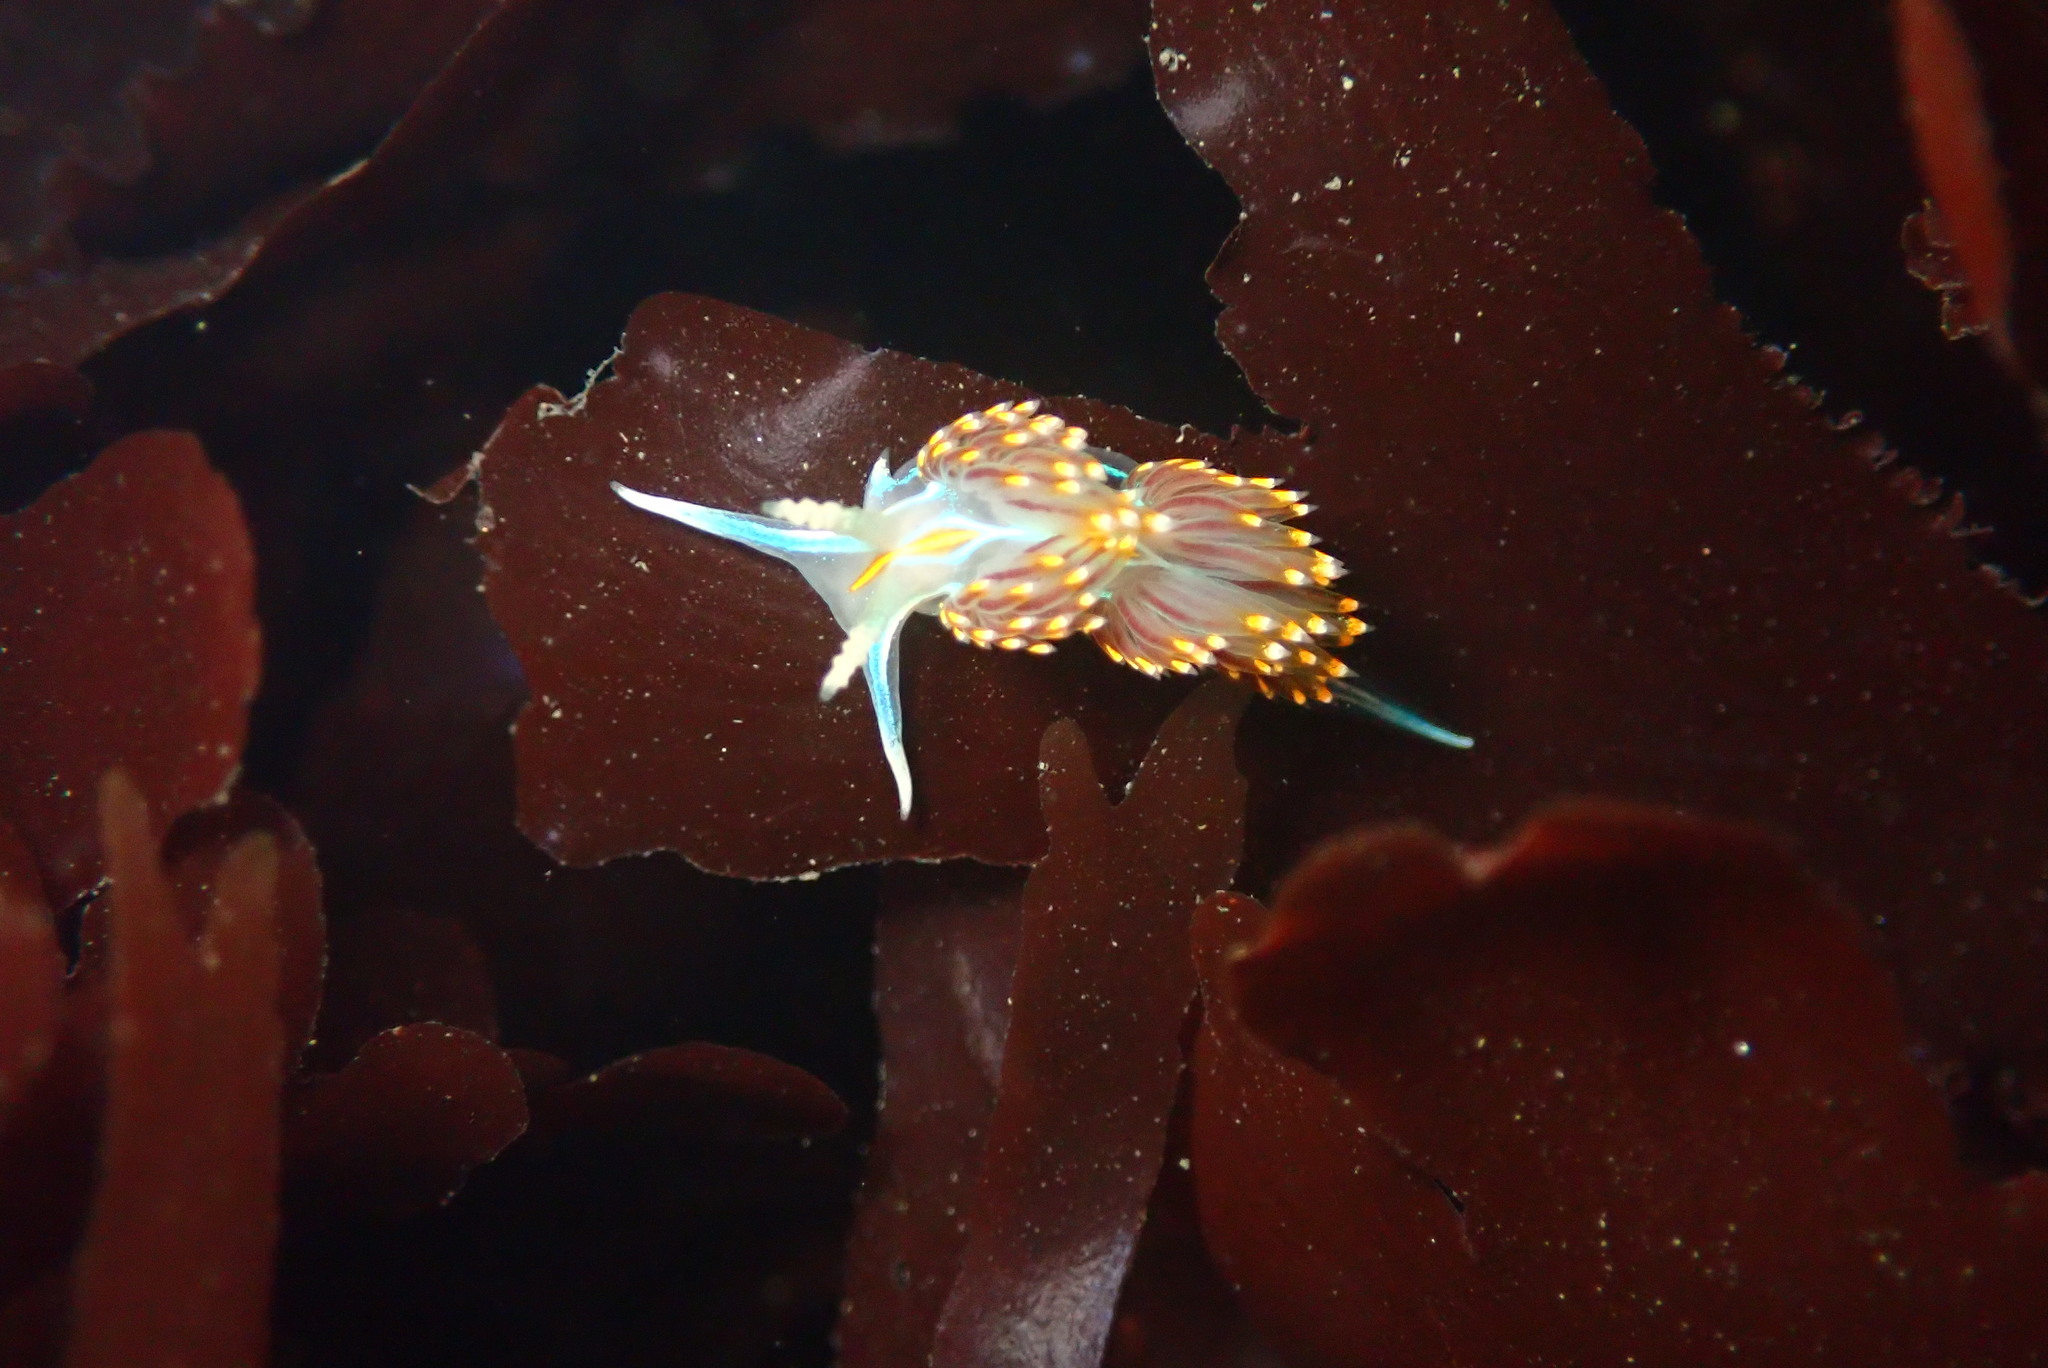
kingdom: Animalia
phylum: Mollusca
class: Gastropoda
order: Nudibranchia
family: Myrrhinidae
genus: Hermissenda
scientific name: Hermissenda opalescens
